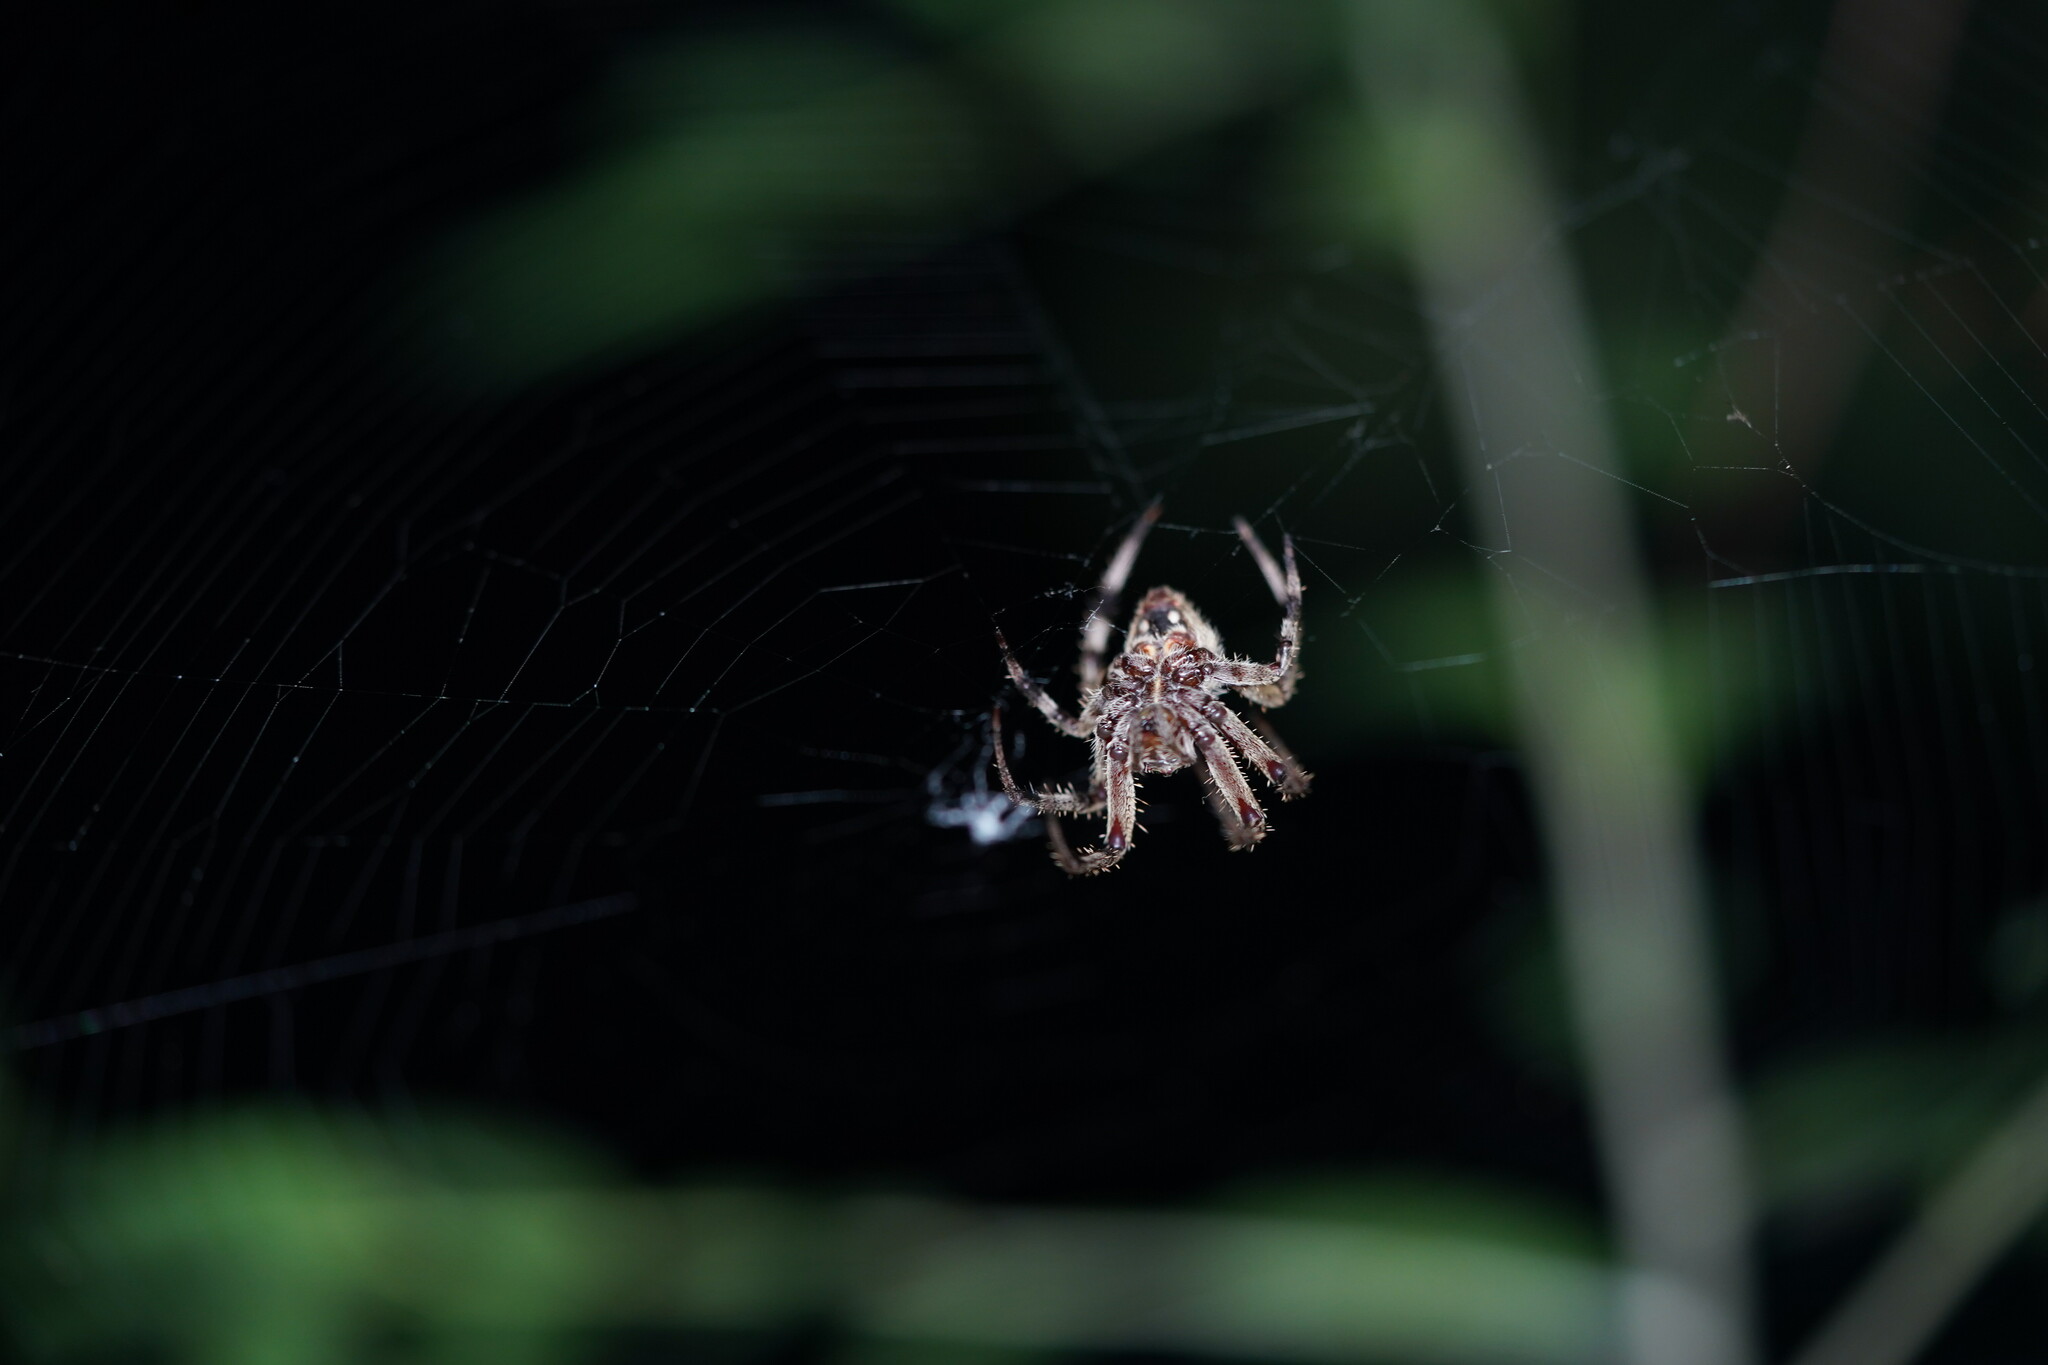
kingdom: Animalia
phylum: Arthropoda
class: Arachnida
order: Araneae
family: Araneidae
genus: Neoscona
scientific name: Neoscona crucifera
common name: Spotted orbweaver
